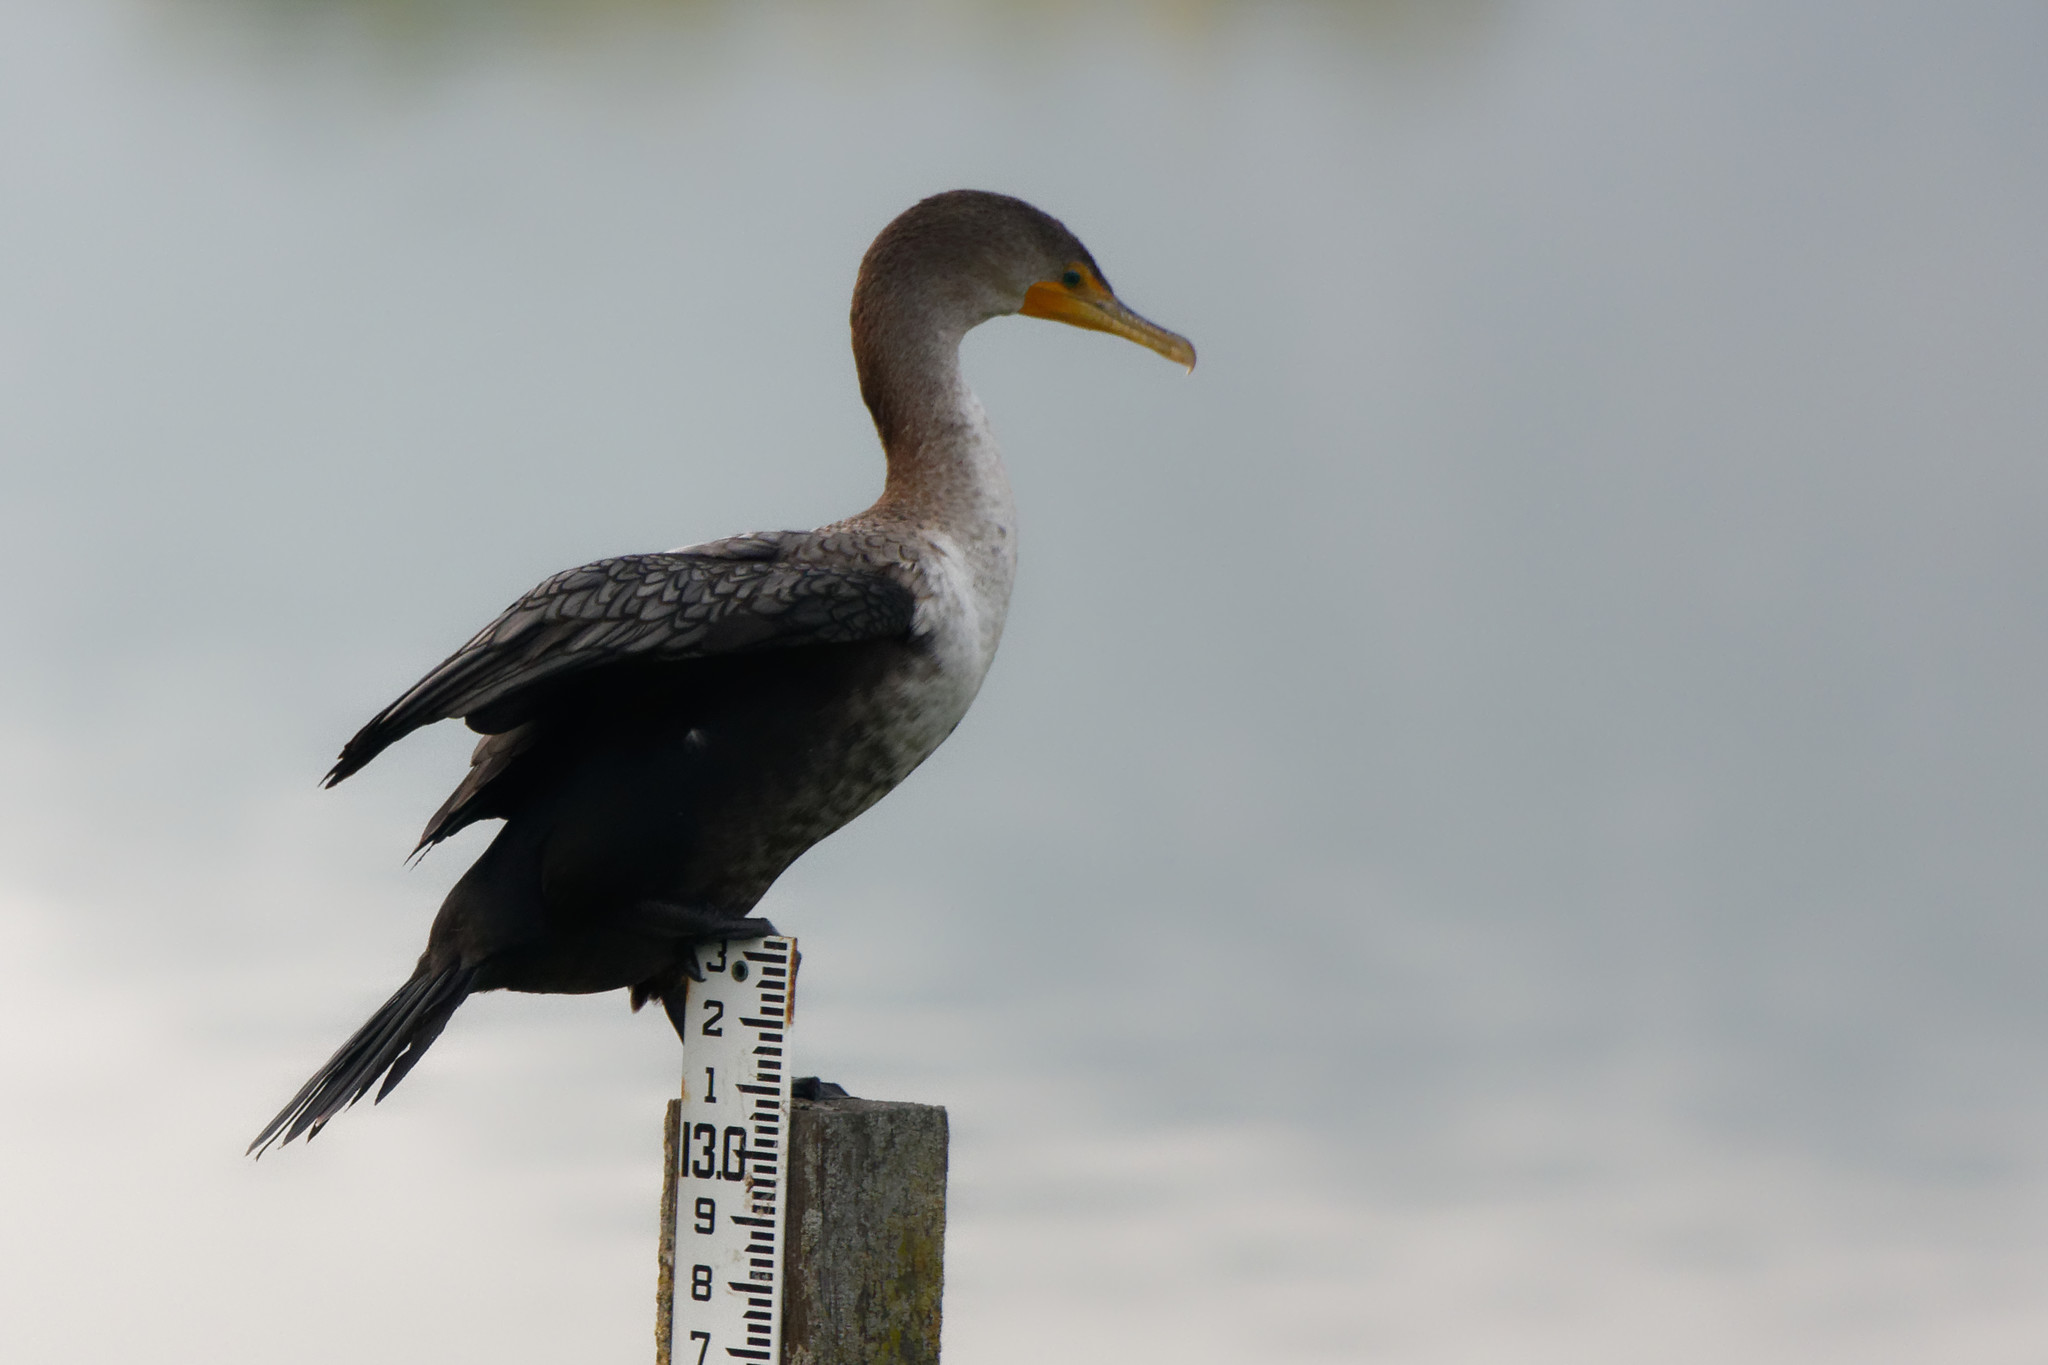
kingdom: Animalia
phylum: Chordata
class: Aves
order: Suliformes
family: Phalacrocoracidae
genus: Phalacrocorax
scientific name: Phalacrocorax auritus
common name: Double-crested cormorant
